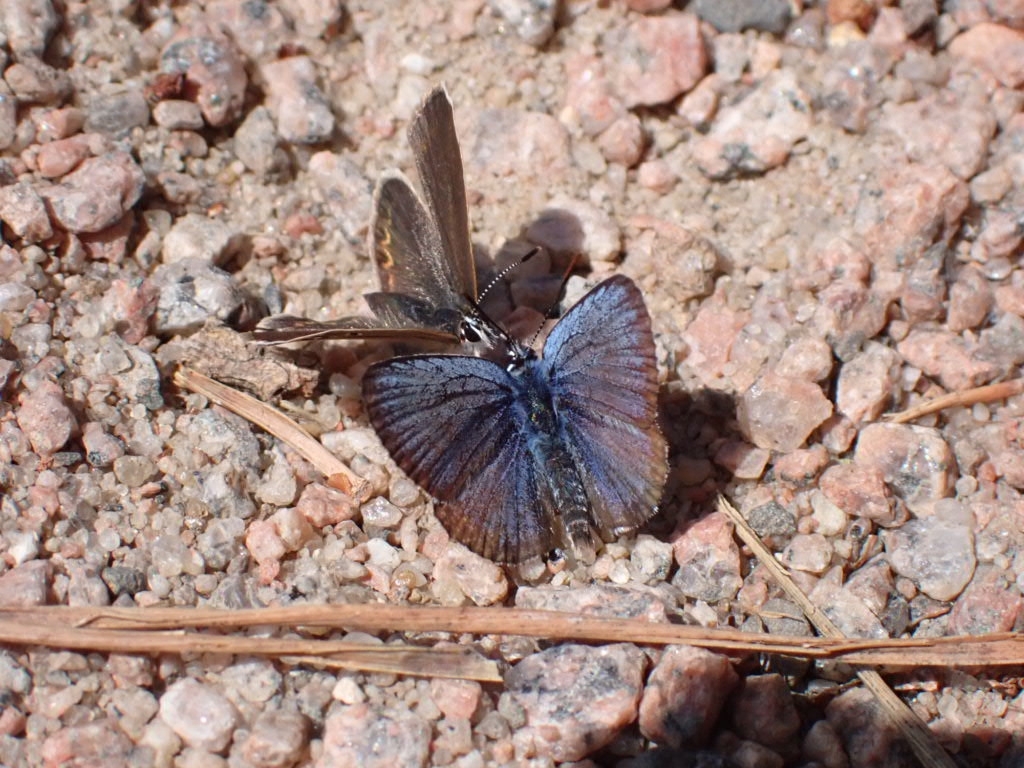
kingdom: Animalia
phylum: Arthropoda
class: Insecta
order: Lepidoptera
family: Lycaenidae
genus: Plebejus
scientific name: Plebejus argus
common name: Silver-studded blue
